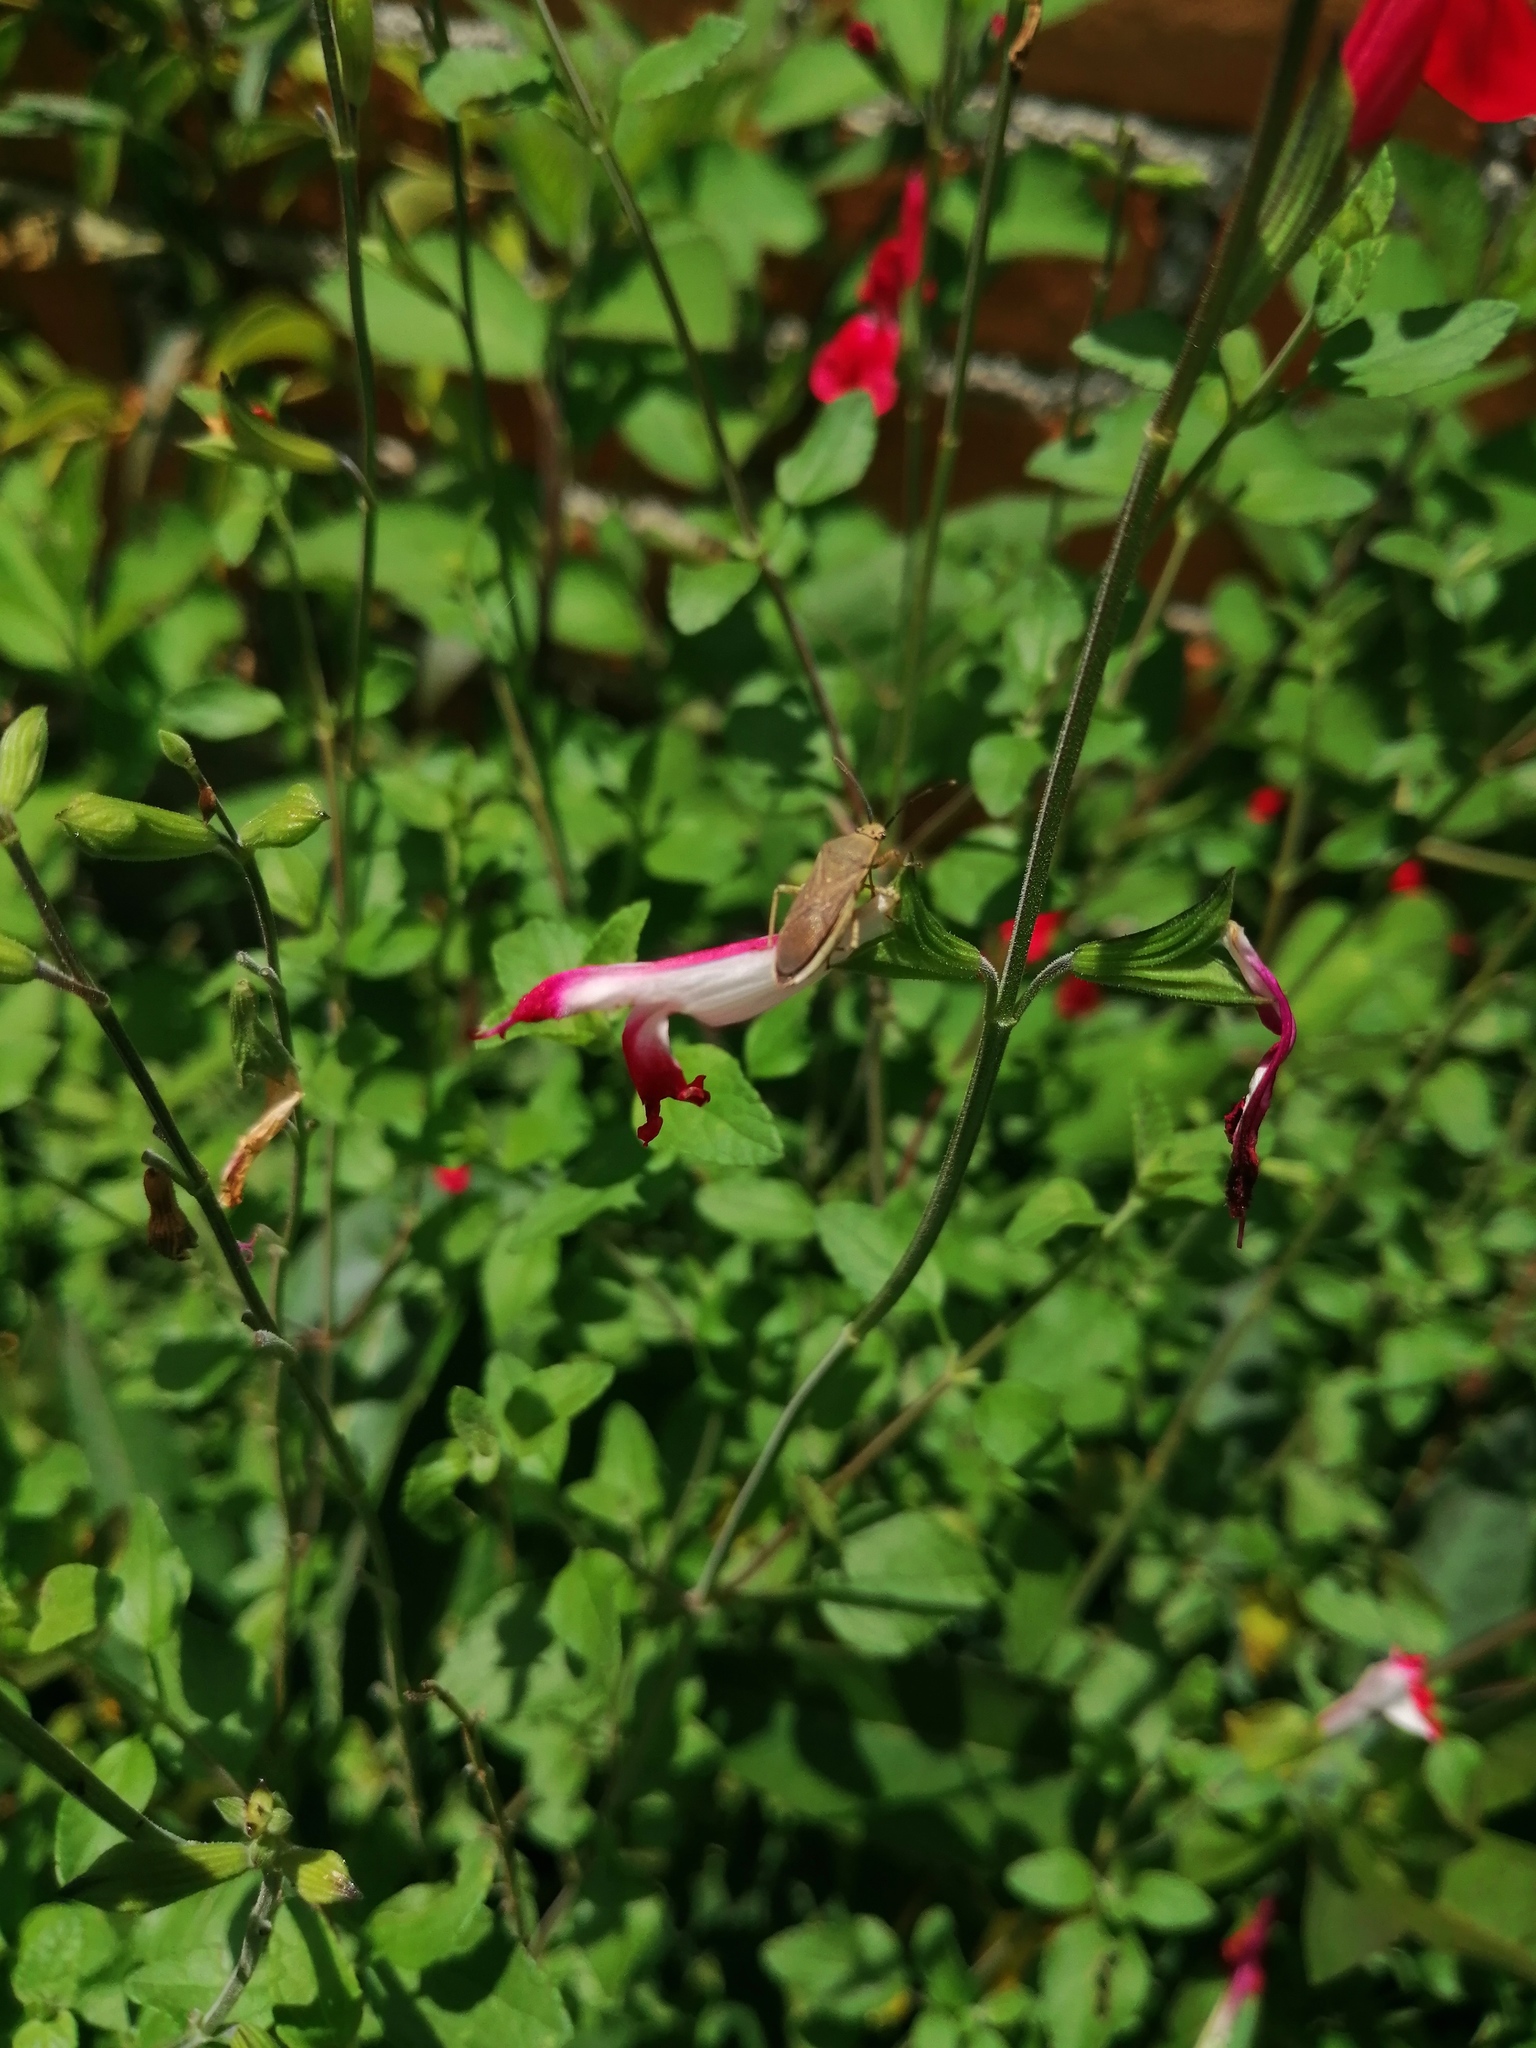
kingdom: Animalia
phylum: Arthropoda
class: Insecta
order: Hemiptera
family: Coreidae
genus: Catorhintha
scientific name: Catorhintha selector
